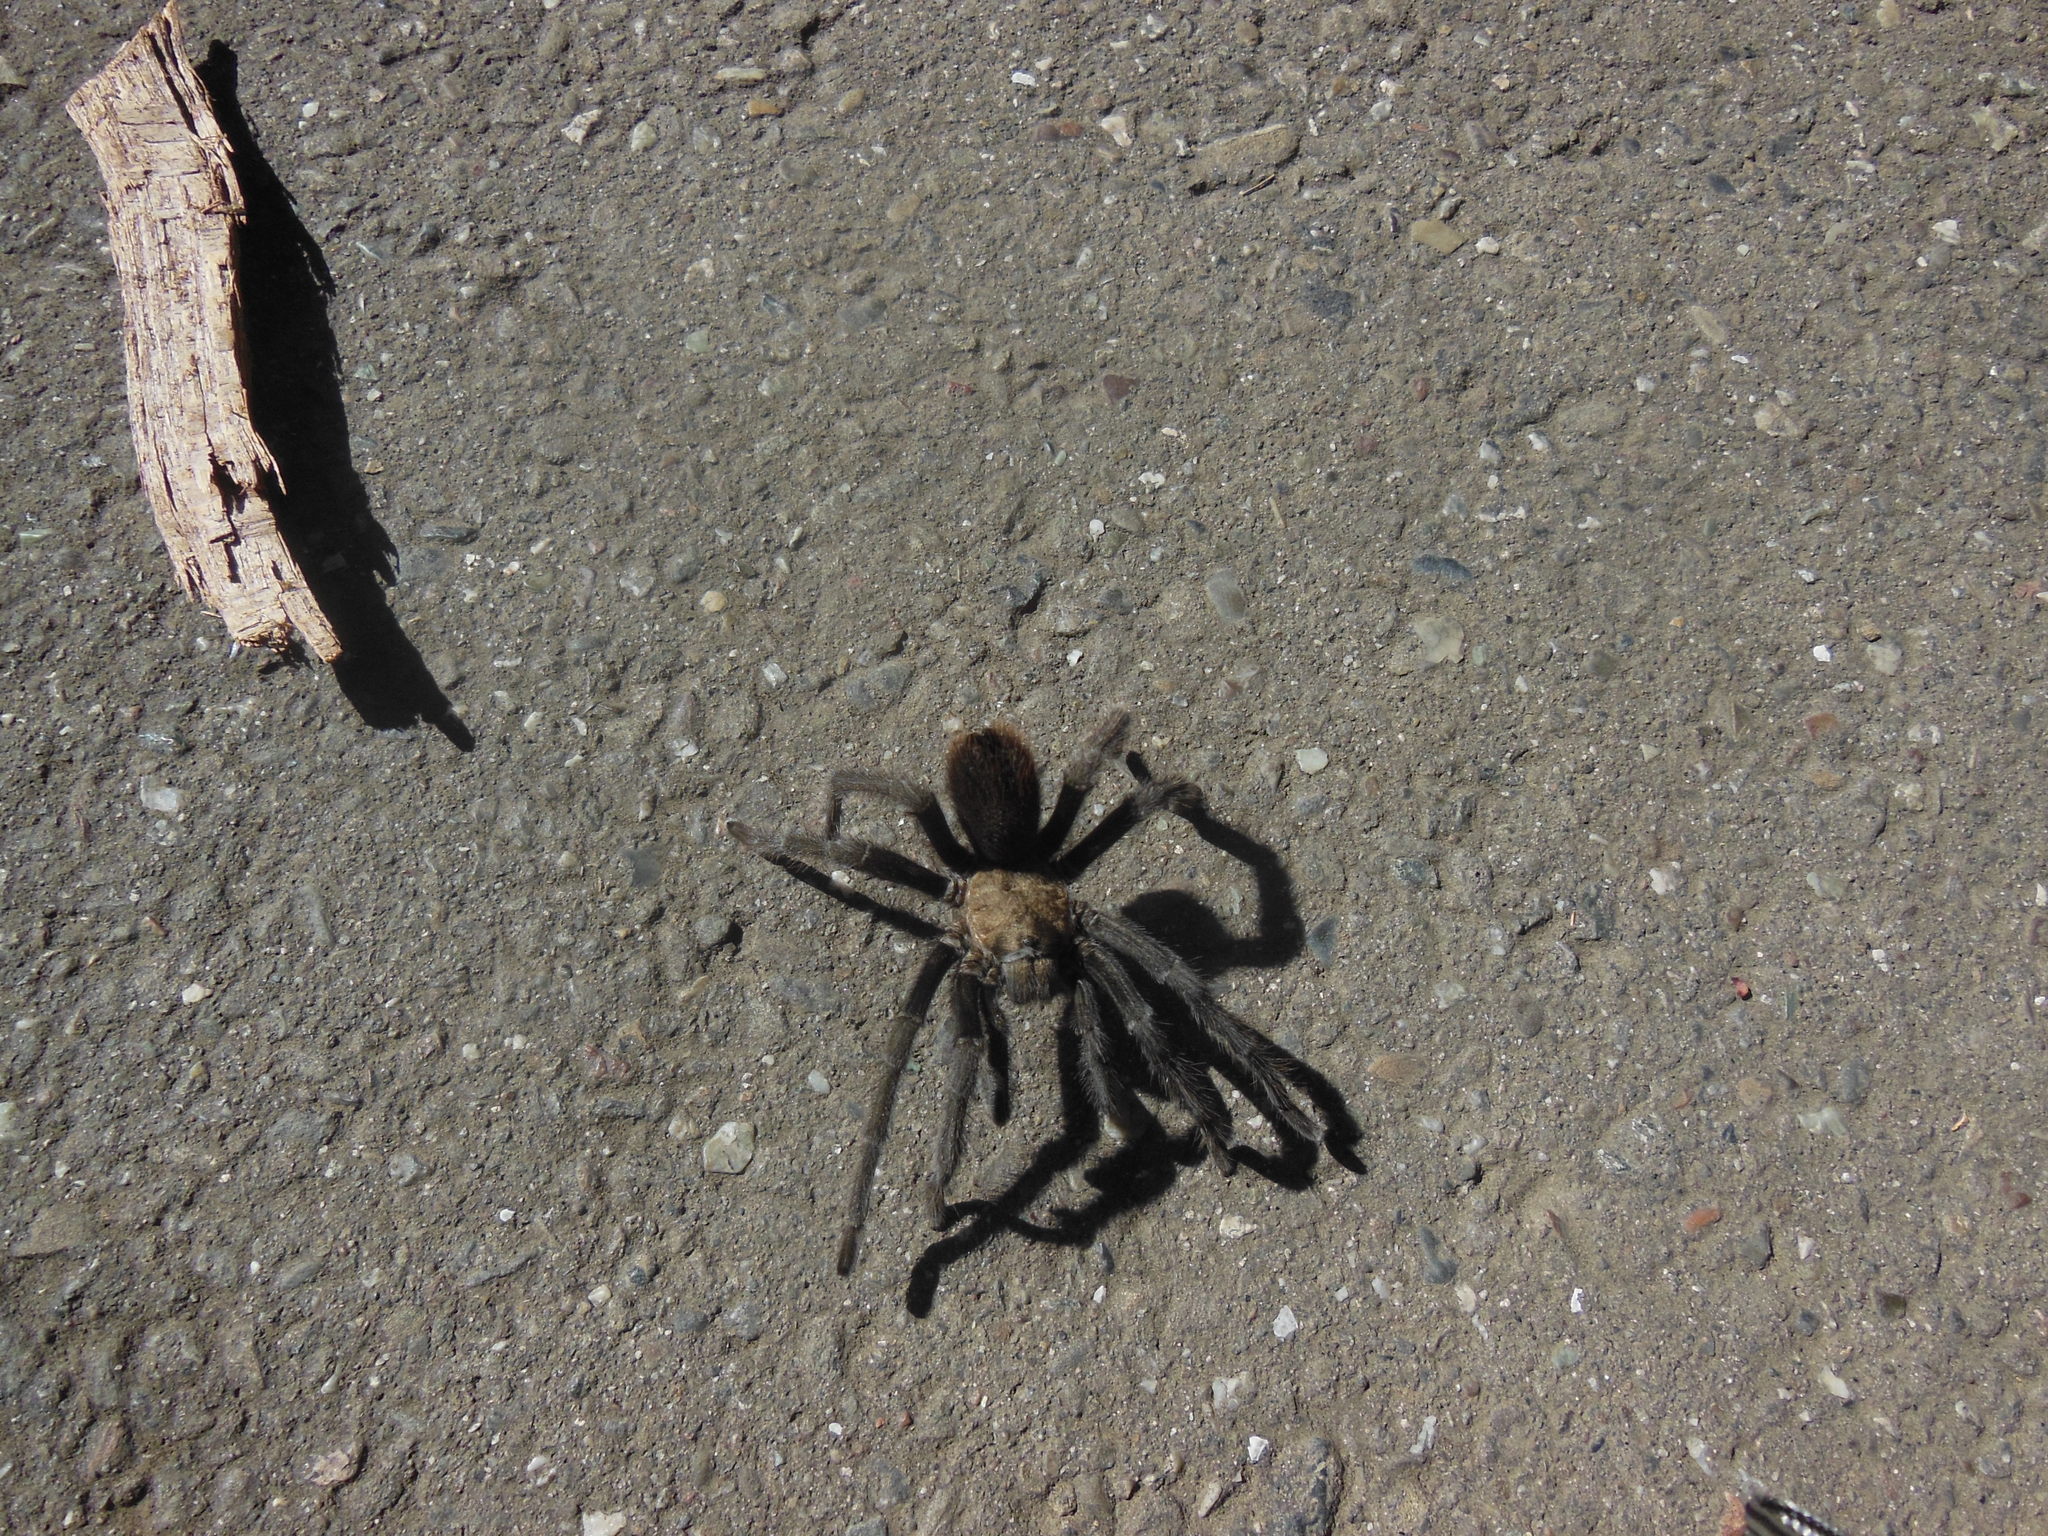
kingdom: Animalia
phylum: Arthropoda
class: Arachnida
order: Araneae
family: Theraphosidae
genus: Aphonopelma
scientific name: Aphonopelma iodius
